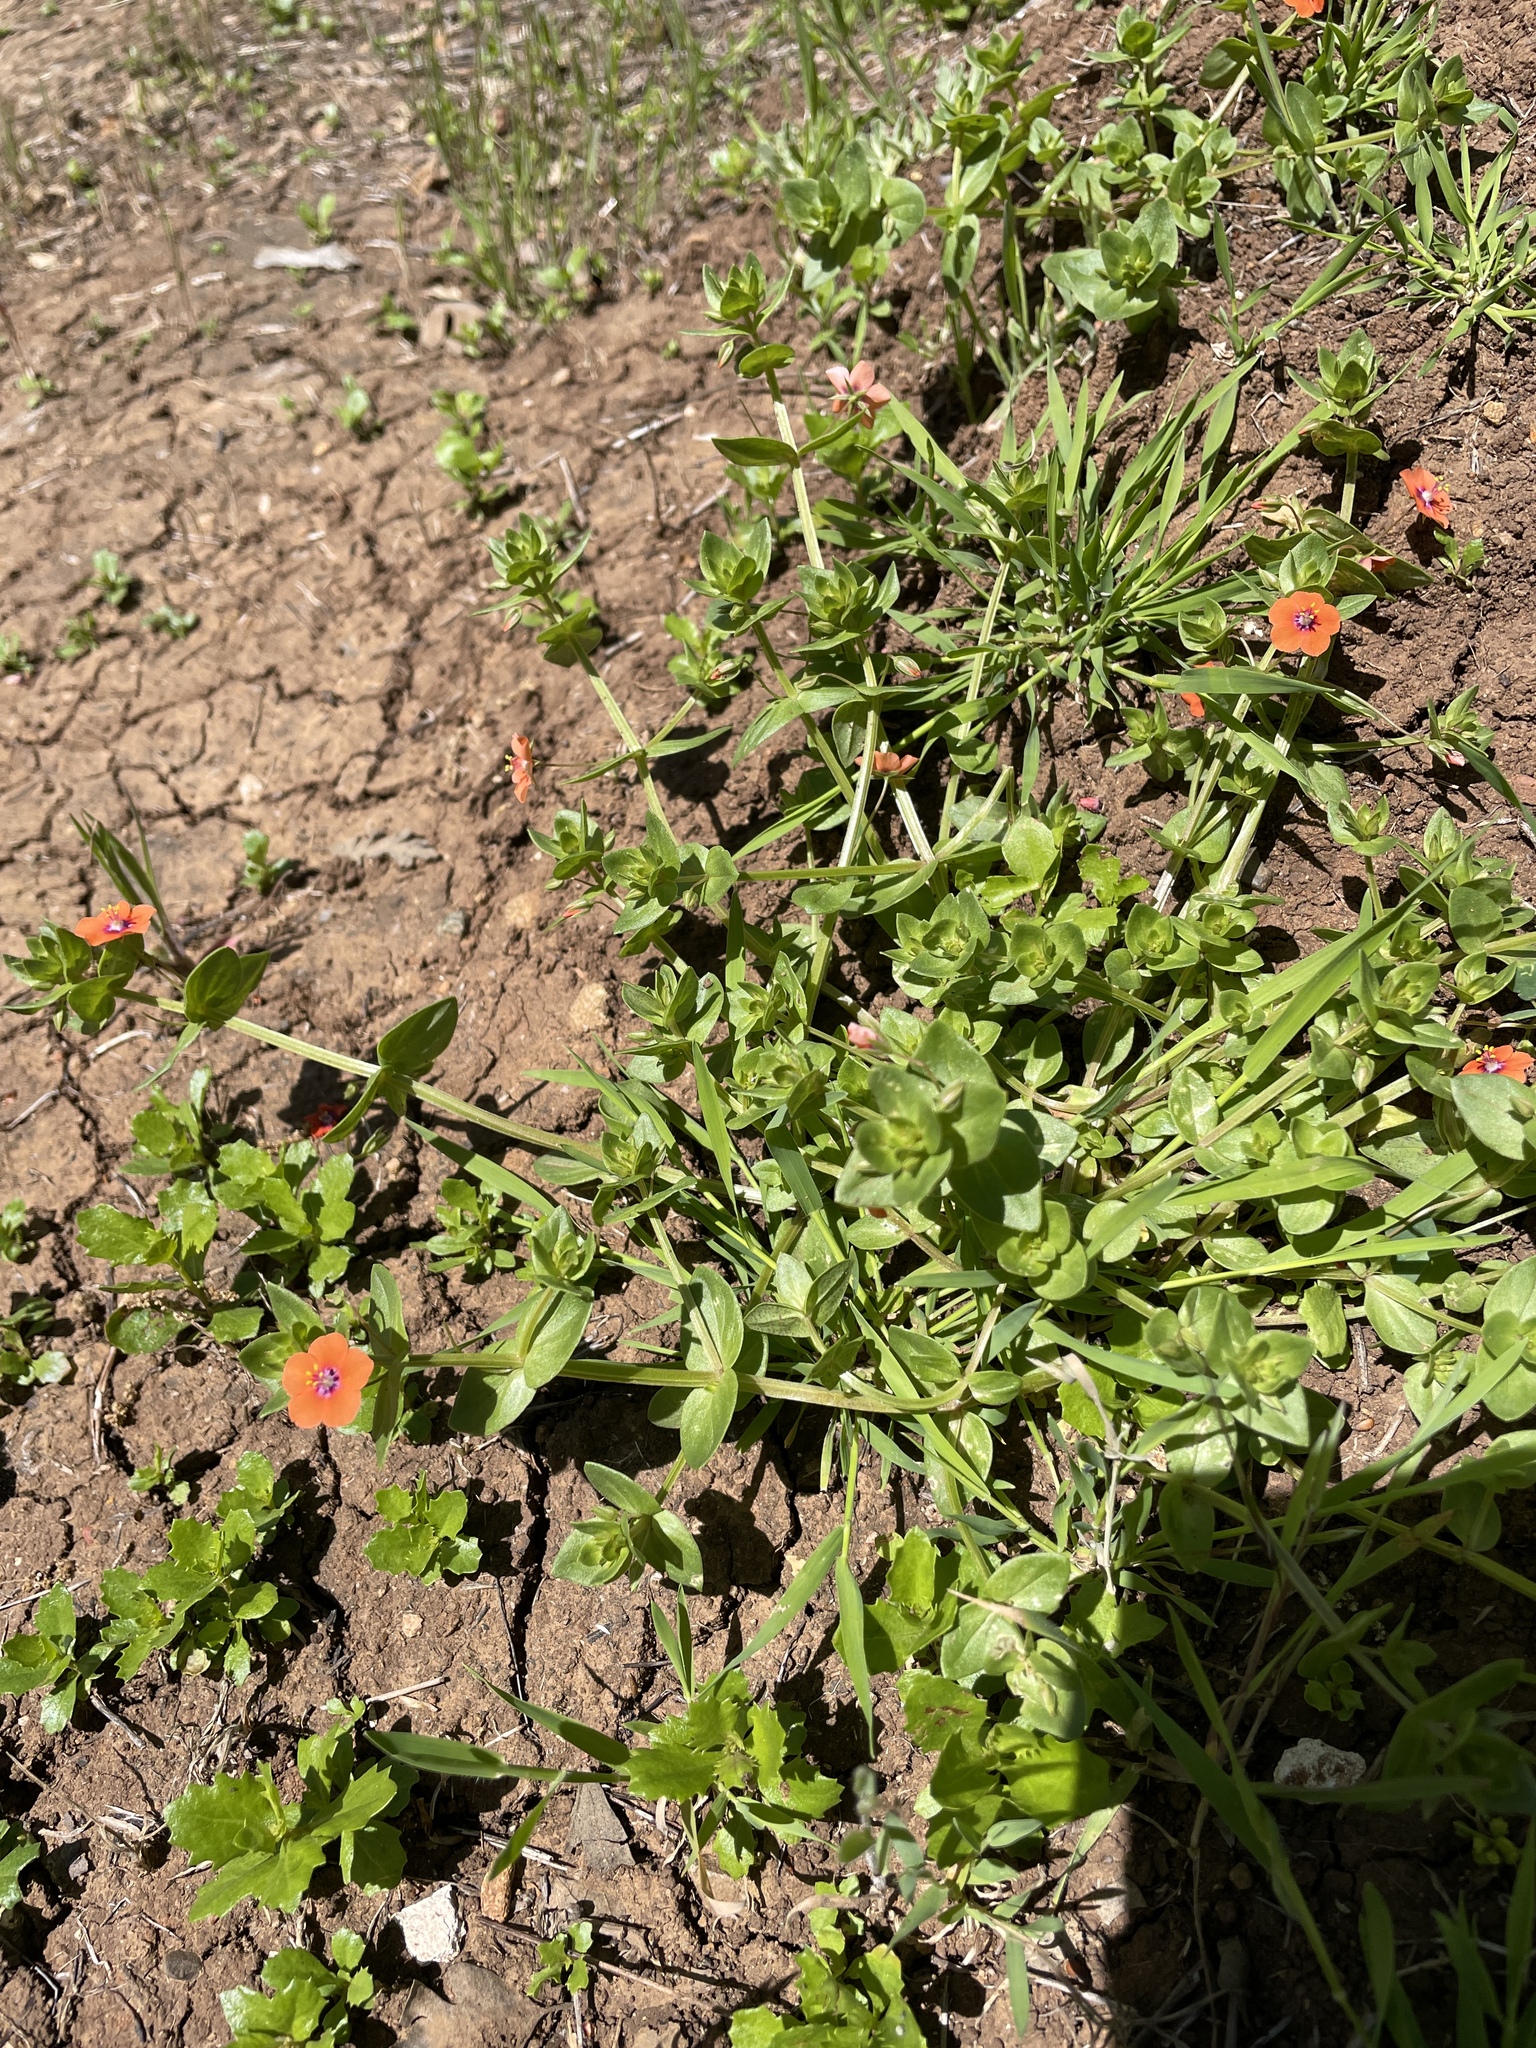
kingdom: Plantae
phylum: Tracheophyta
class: Magnoliopsida
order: Ericales
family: Primulaceae
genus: Lysimachia
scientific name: Lysimachia arvensis
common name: Scarlet pimpernel
